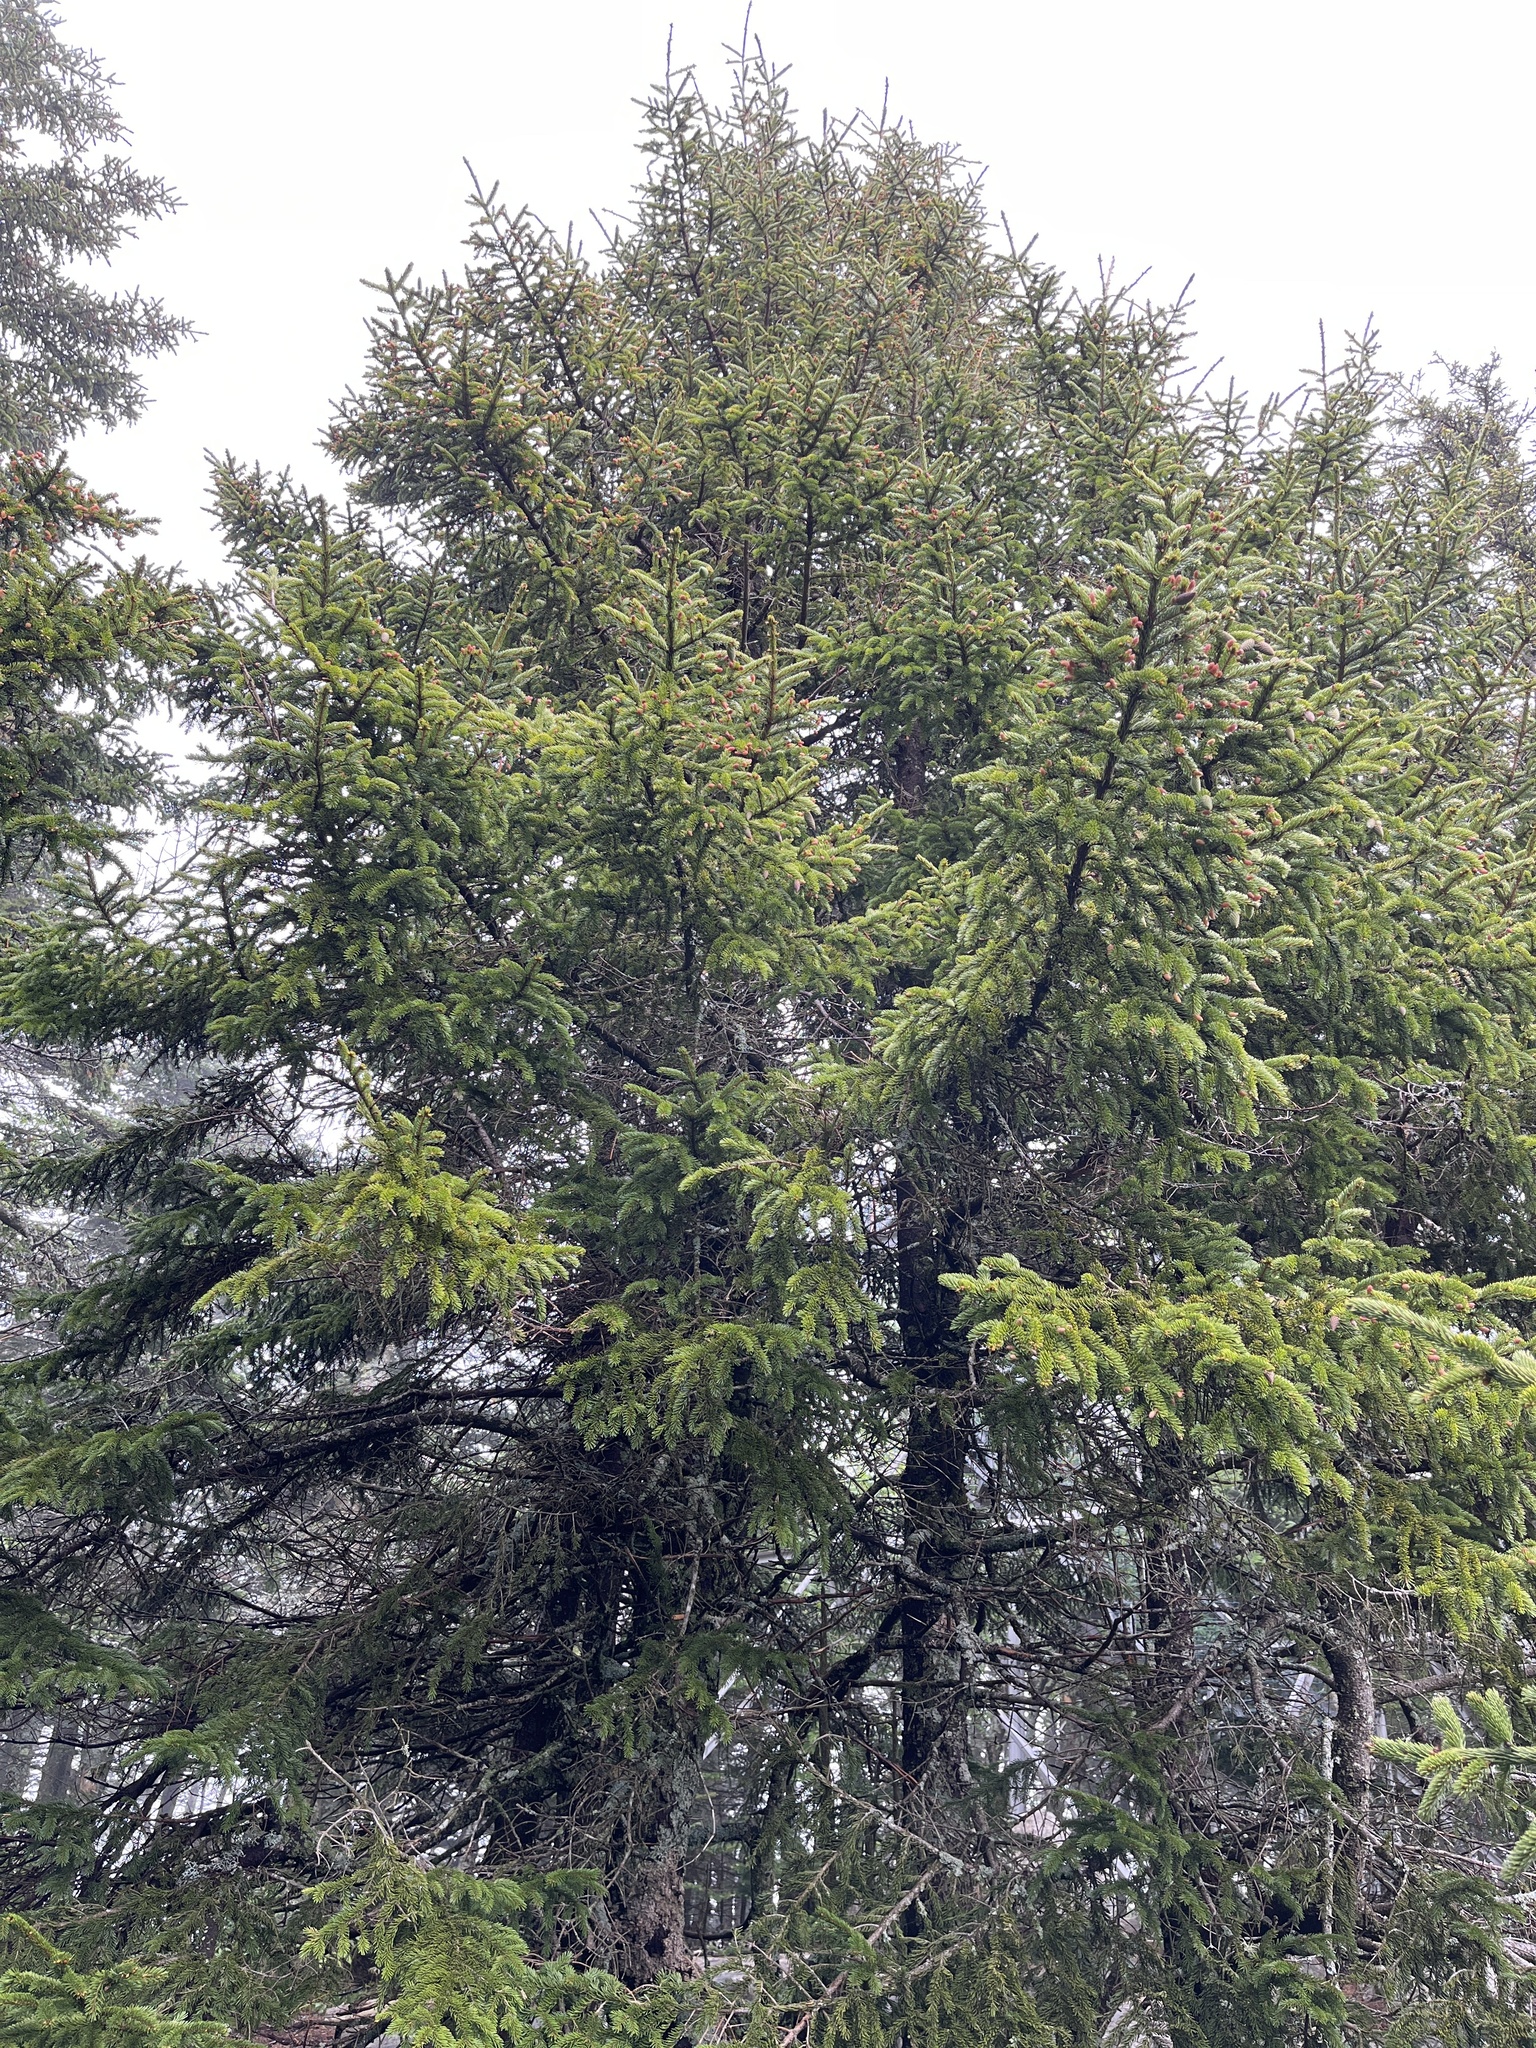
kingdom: Plantae
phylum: Tracheophyta
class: Pinopsida
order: Pinales
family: Pinaceae
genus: Picea
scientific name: Picea rubens
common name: Red spruce
